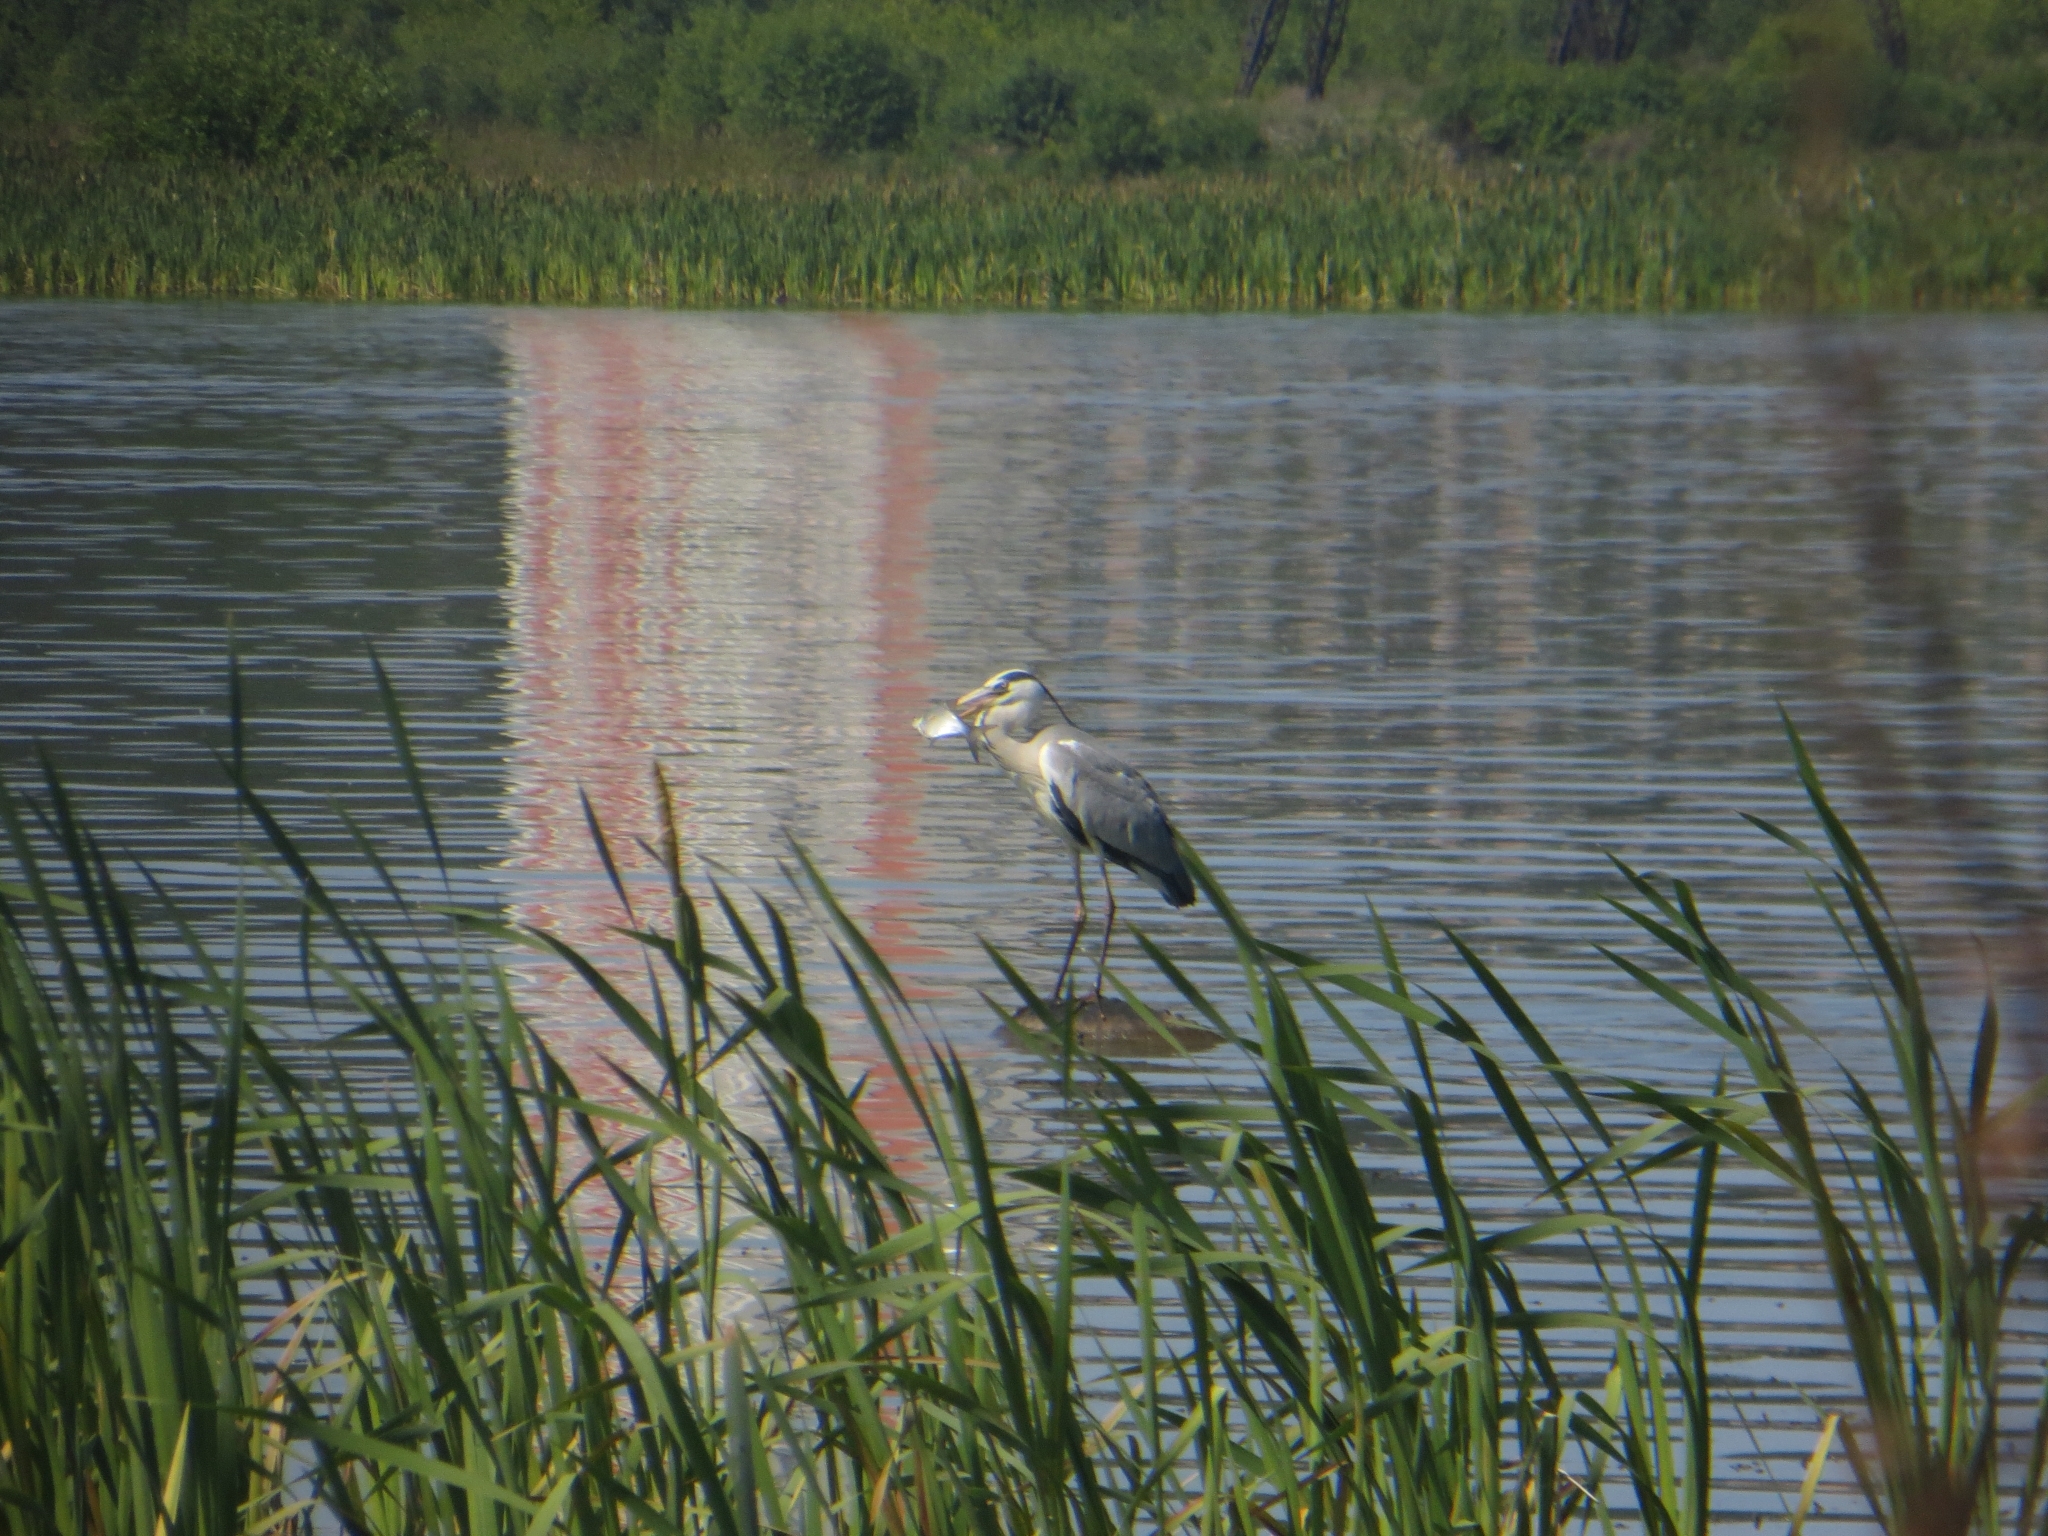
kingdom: Animalia
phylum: Chordata
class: Aves
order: Pelecaniformes
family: Ardeidae
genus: Ardea
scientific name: Ardea cinerea
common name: Grey heron
